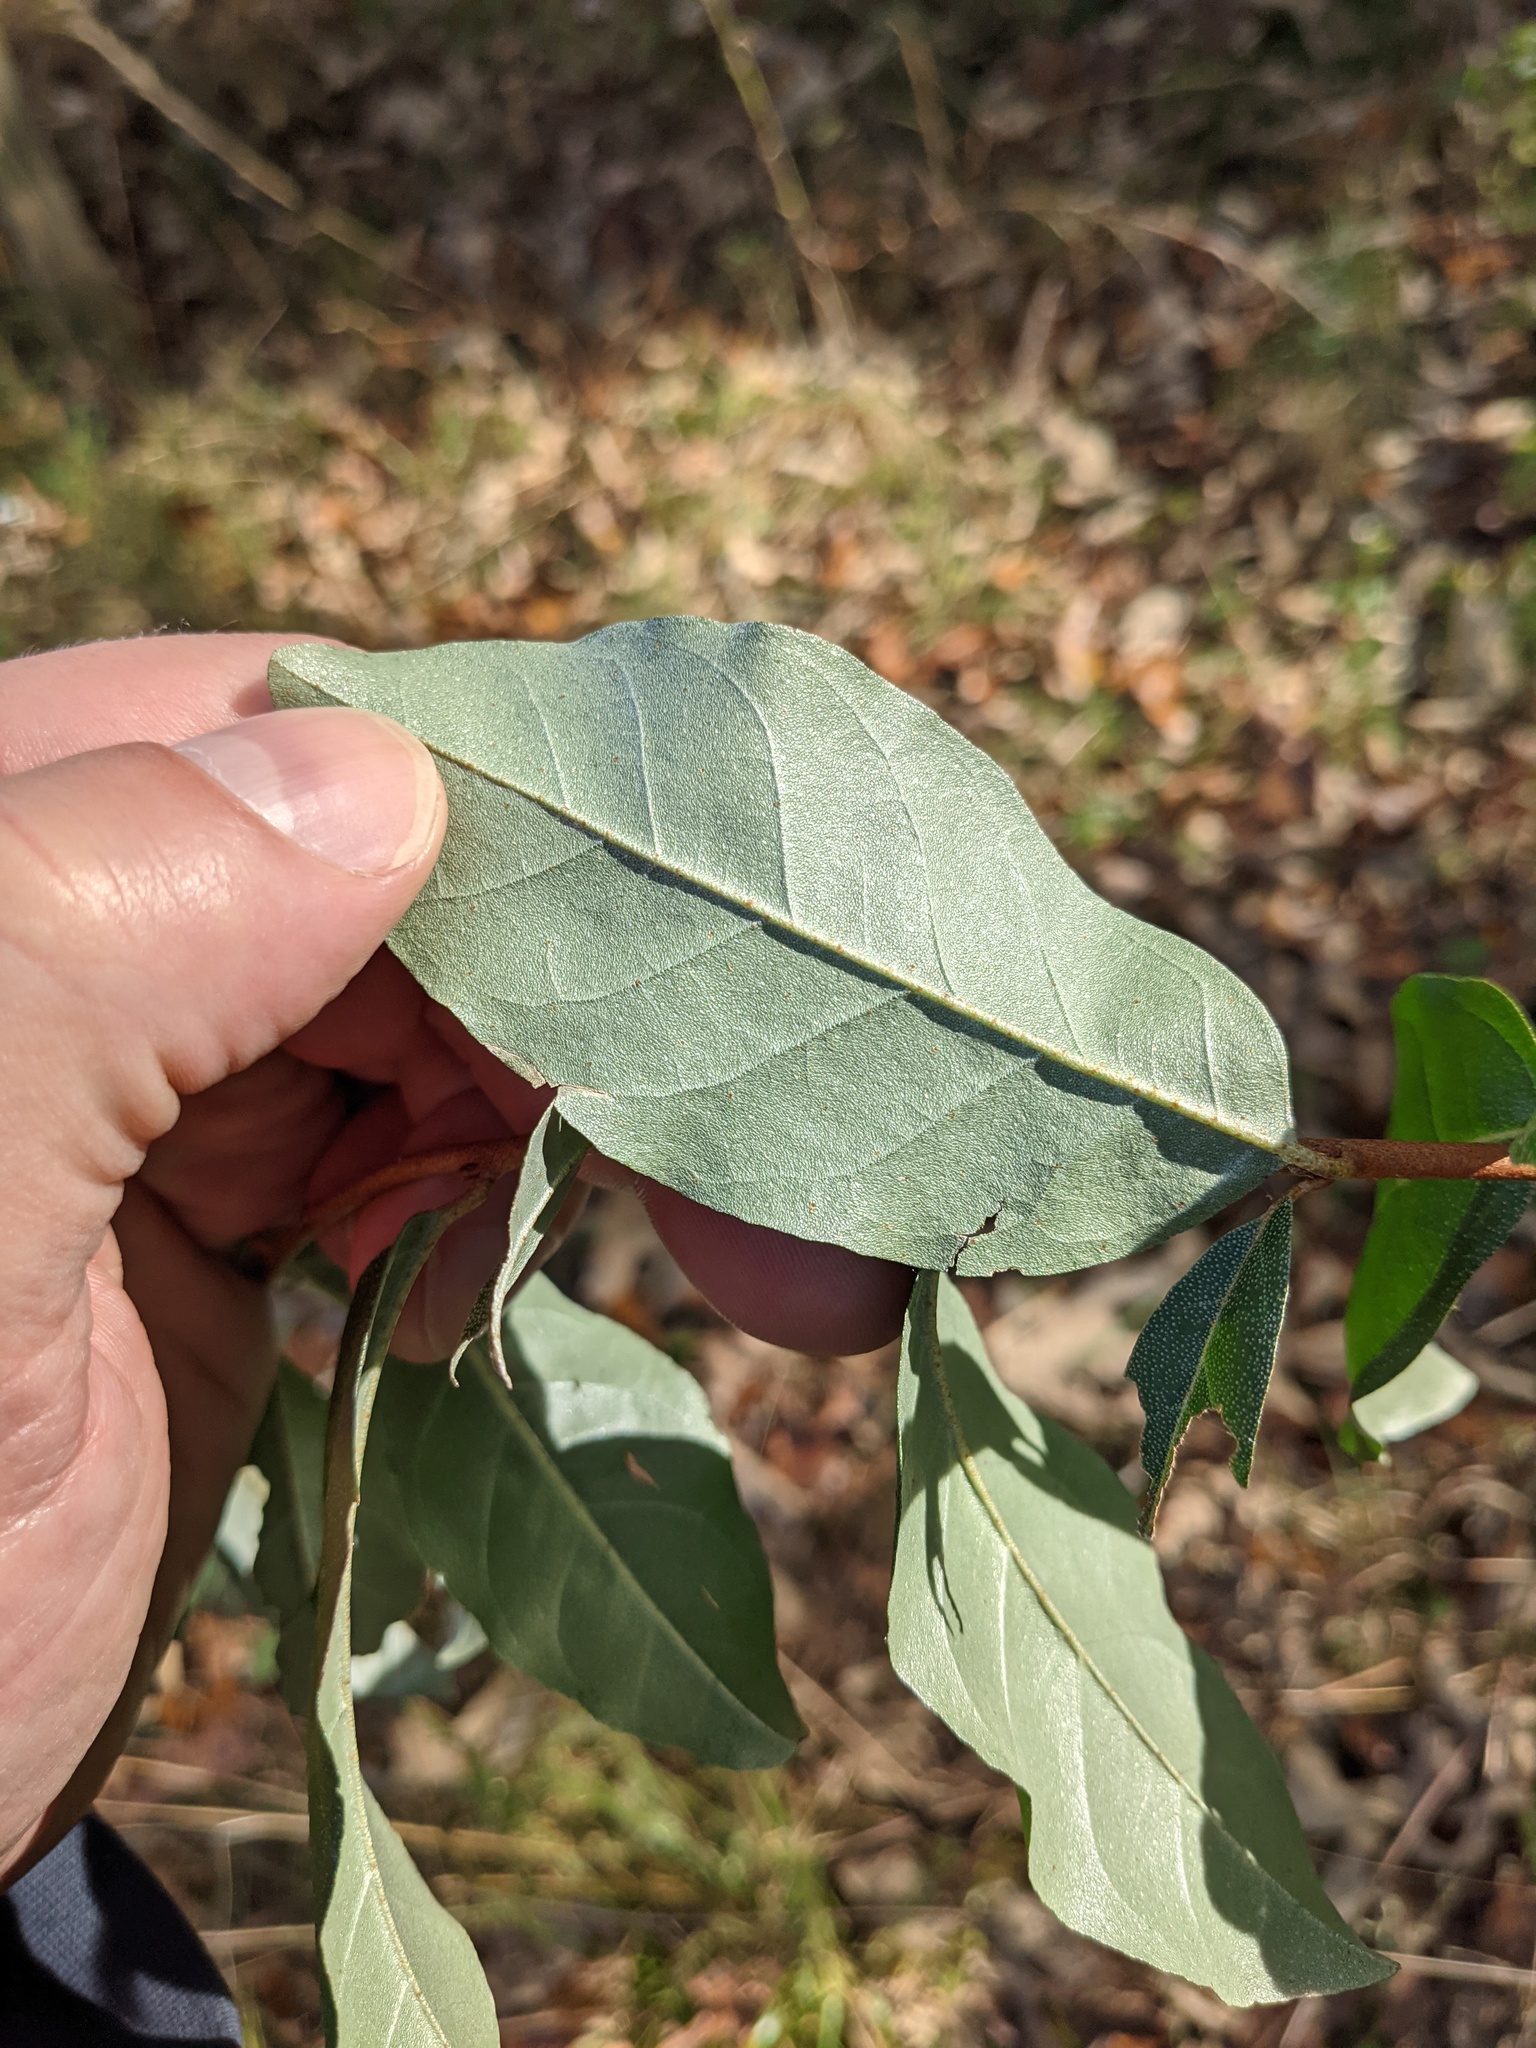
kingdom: Plantae
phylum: Tracheophyta
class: Magnoliopsida
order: Rosales
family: Elaeagnaceae
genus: Elaeagnus
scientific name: Elaeagnus umbellata
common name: Autumn olive
